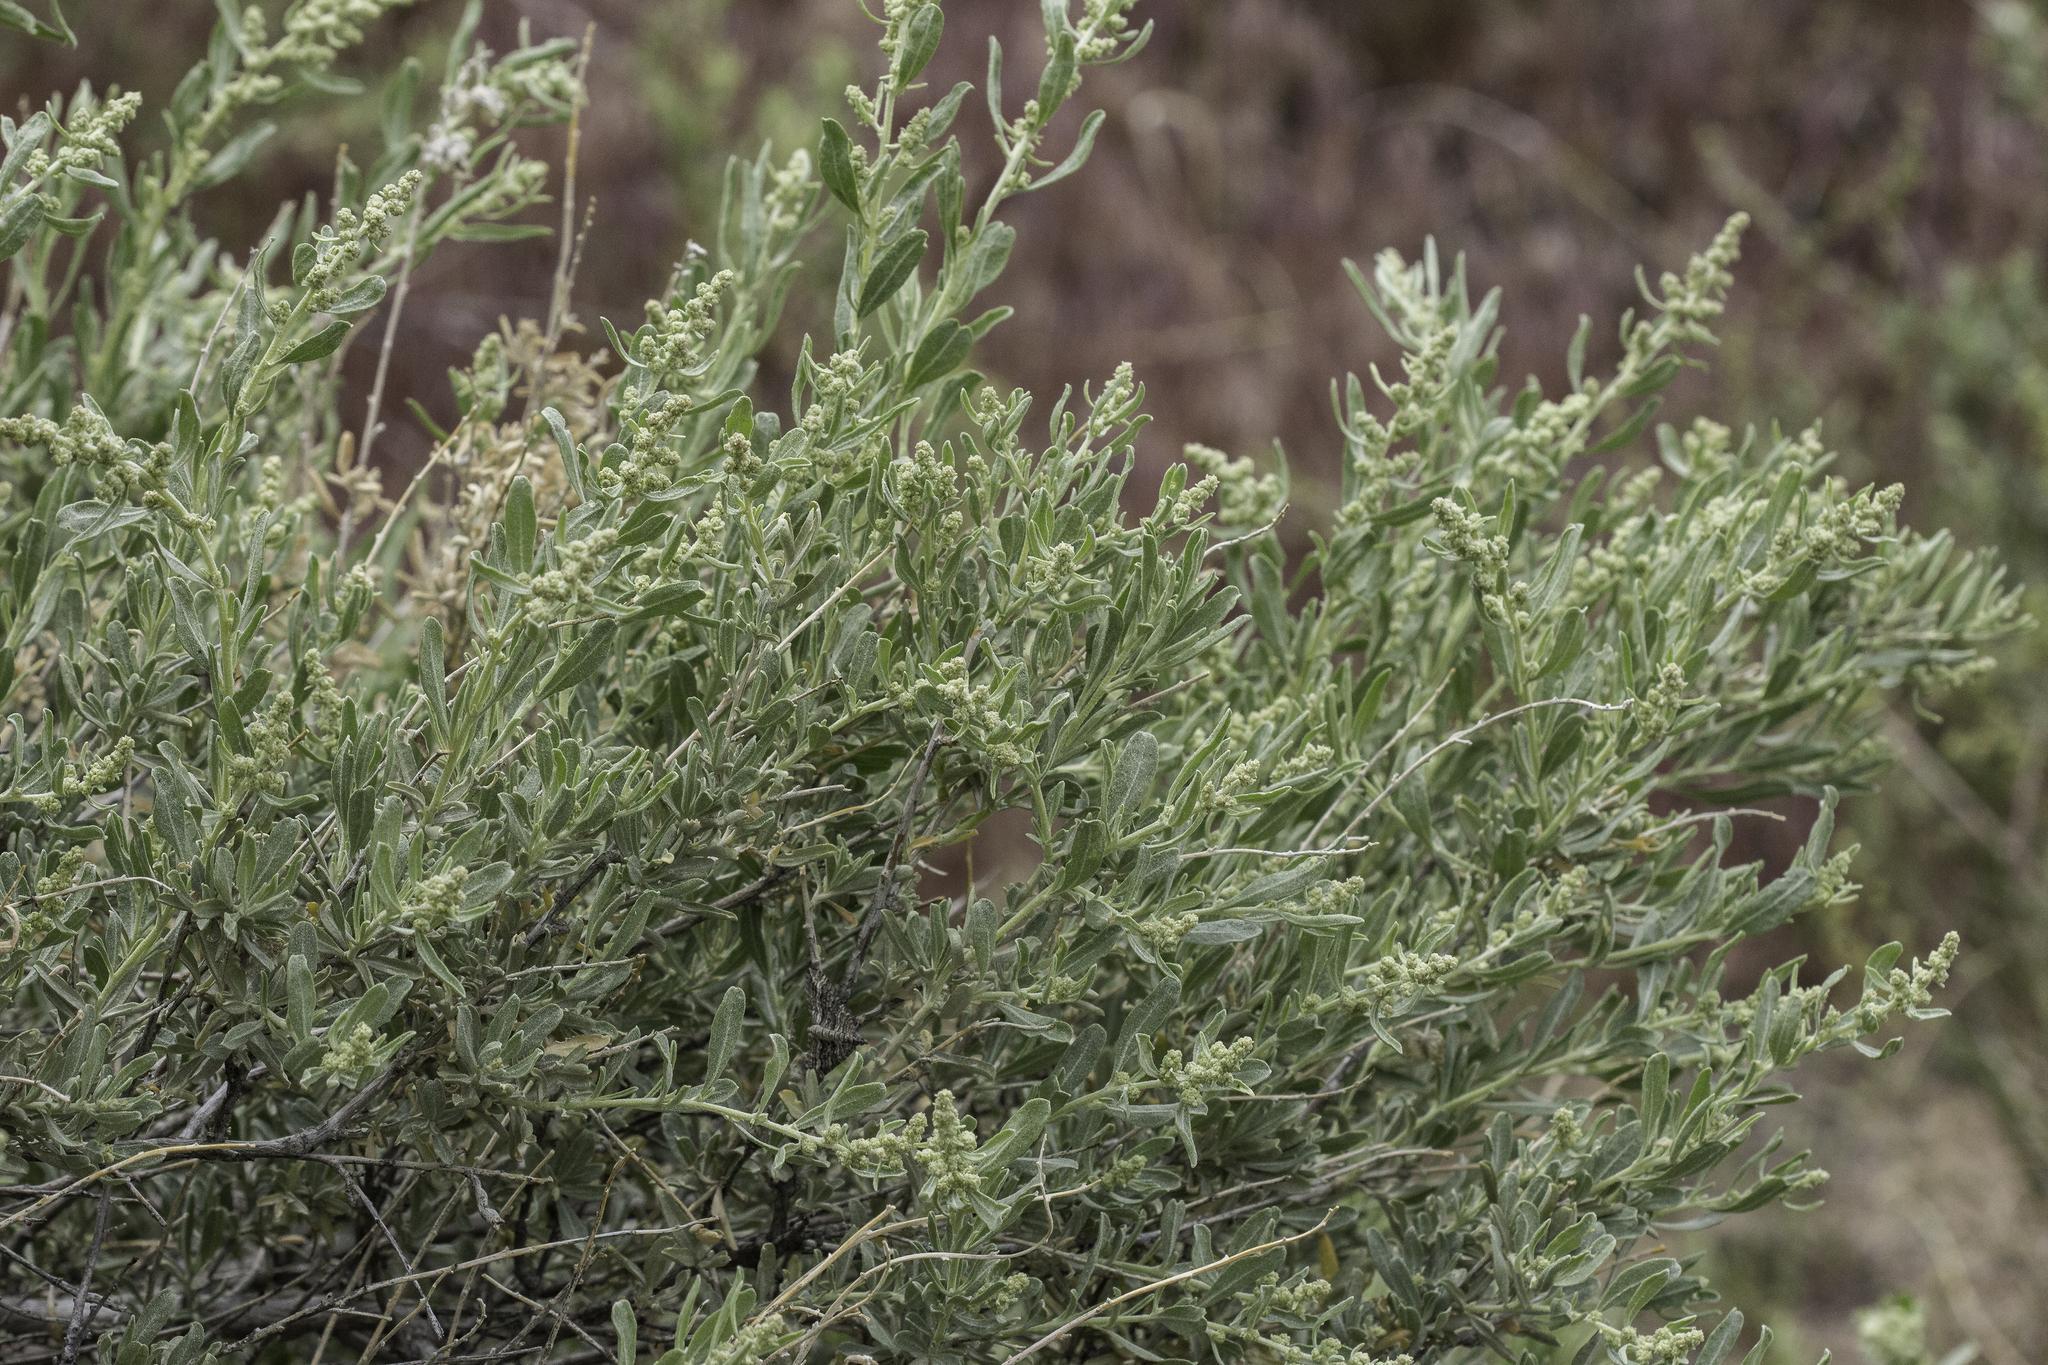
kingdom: Plantae
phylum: Tracheophyta
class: Magnoliopsida
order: Caryophyllales
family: Amaranthaceae
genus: Atriplex
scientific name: Atriplex canescens
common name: Four-wing saltbush
